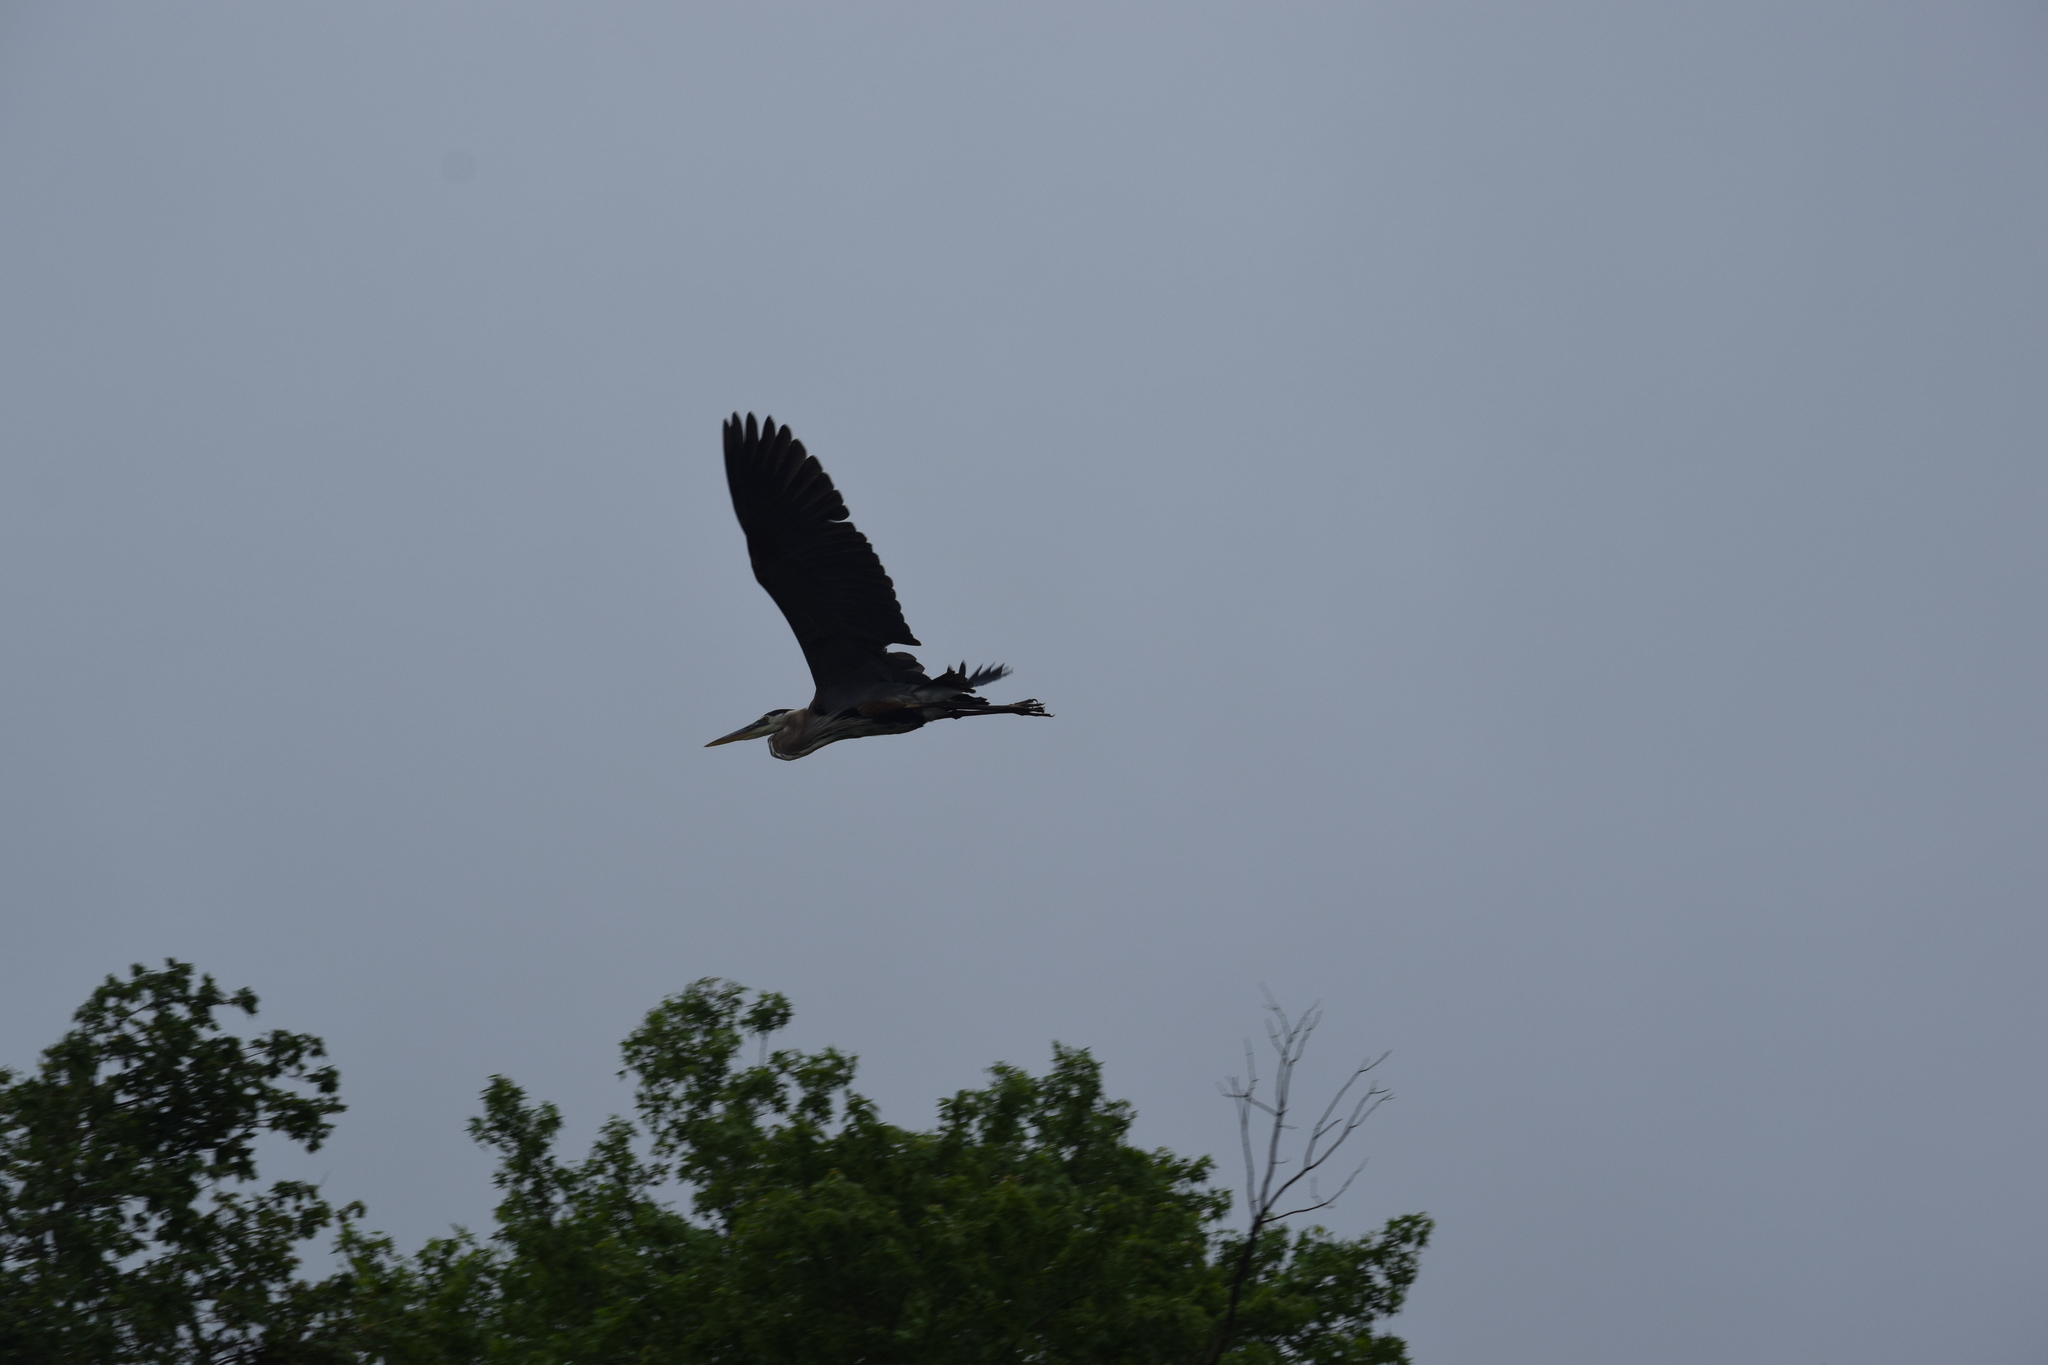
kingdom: Animalia
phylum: Chordata
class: Aves
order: Pelecaniformes
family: Ardeidae
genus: Ardea
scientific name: Ardea herodias
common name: Great blue heron
